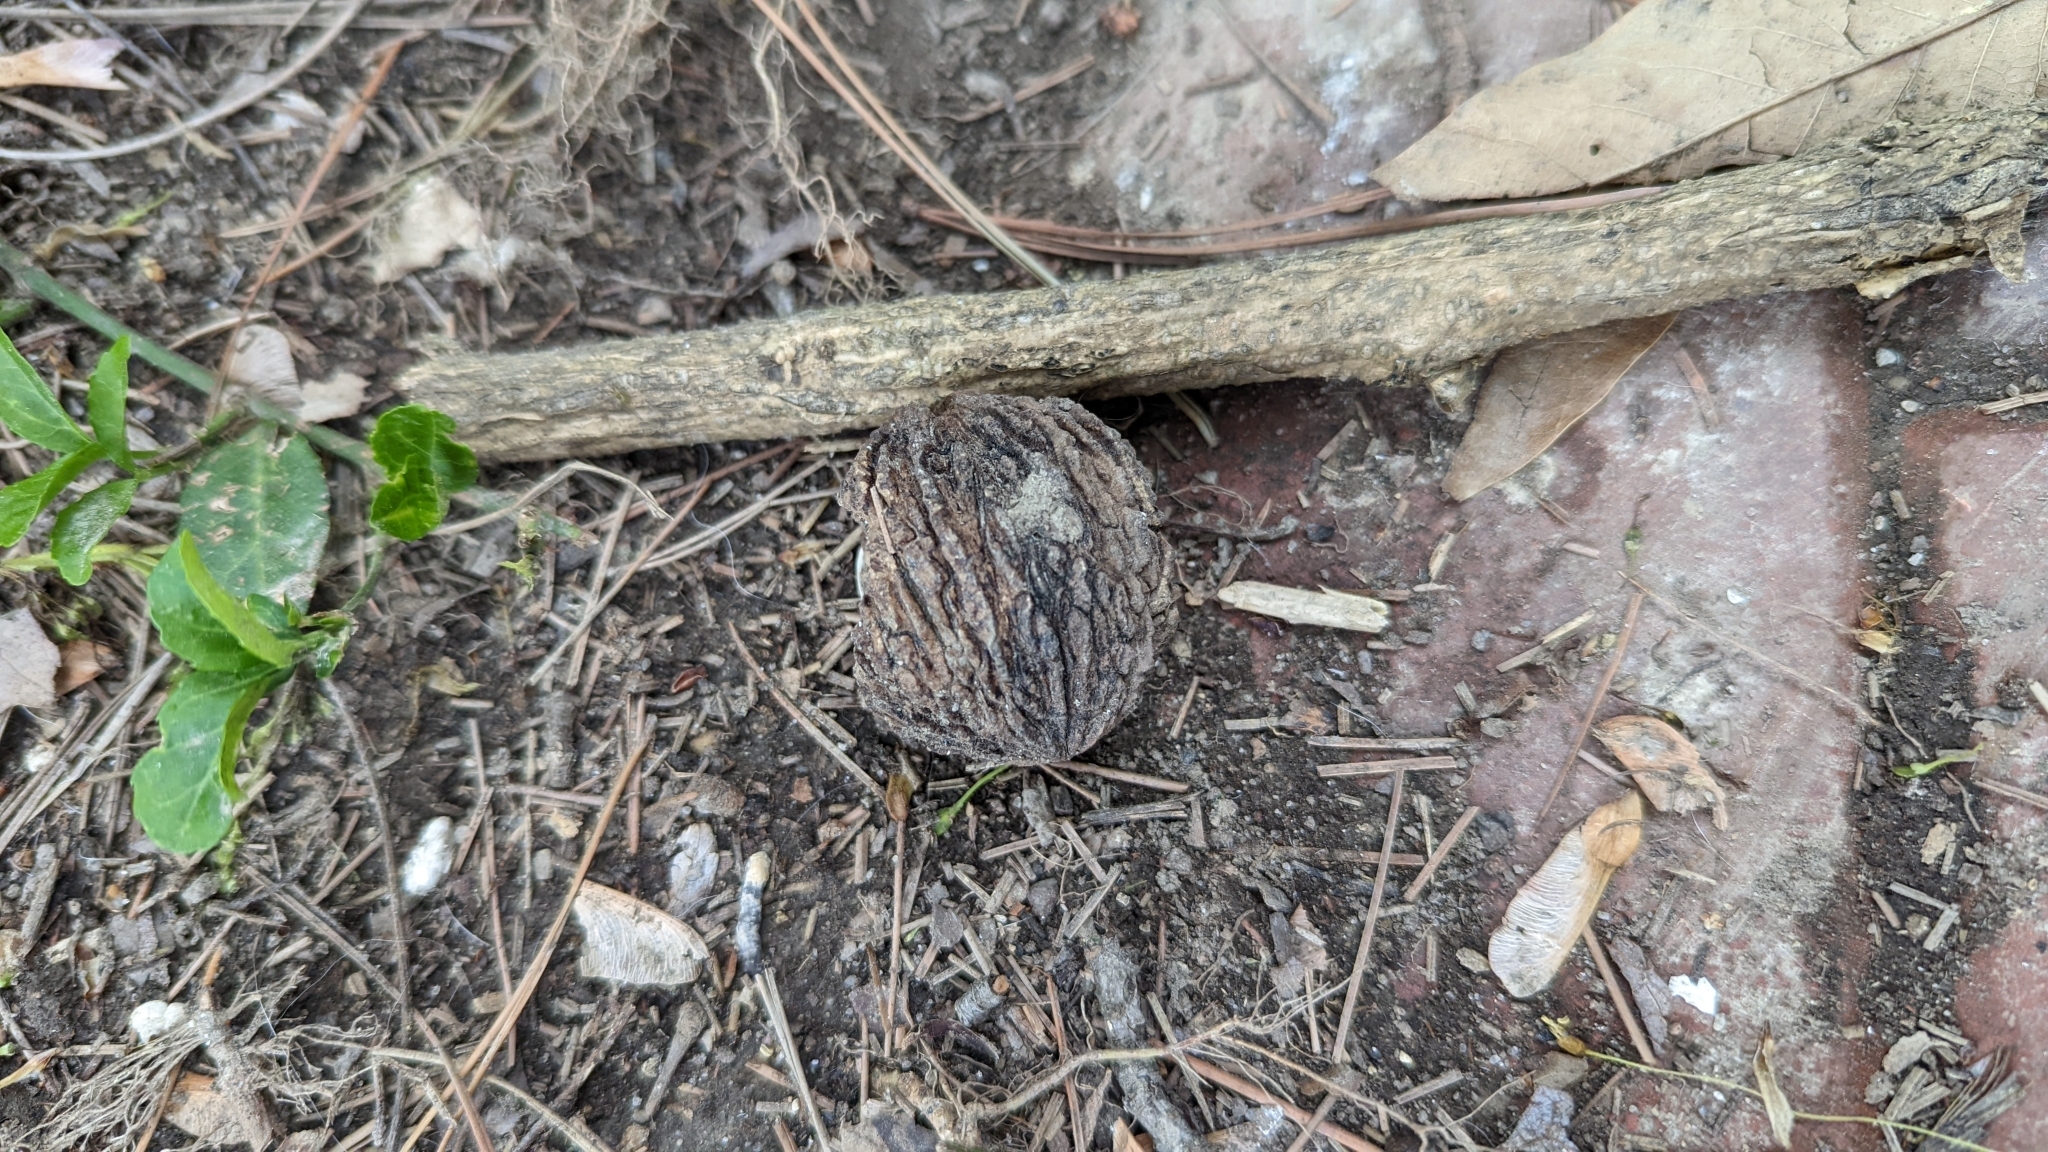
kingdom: Plantae
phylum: Tracheophyta
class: Magnoliopsida
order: Fagales
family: Juglandaceae
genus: Juglans
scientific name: Juglans nigra
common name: Black walnut
